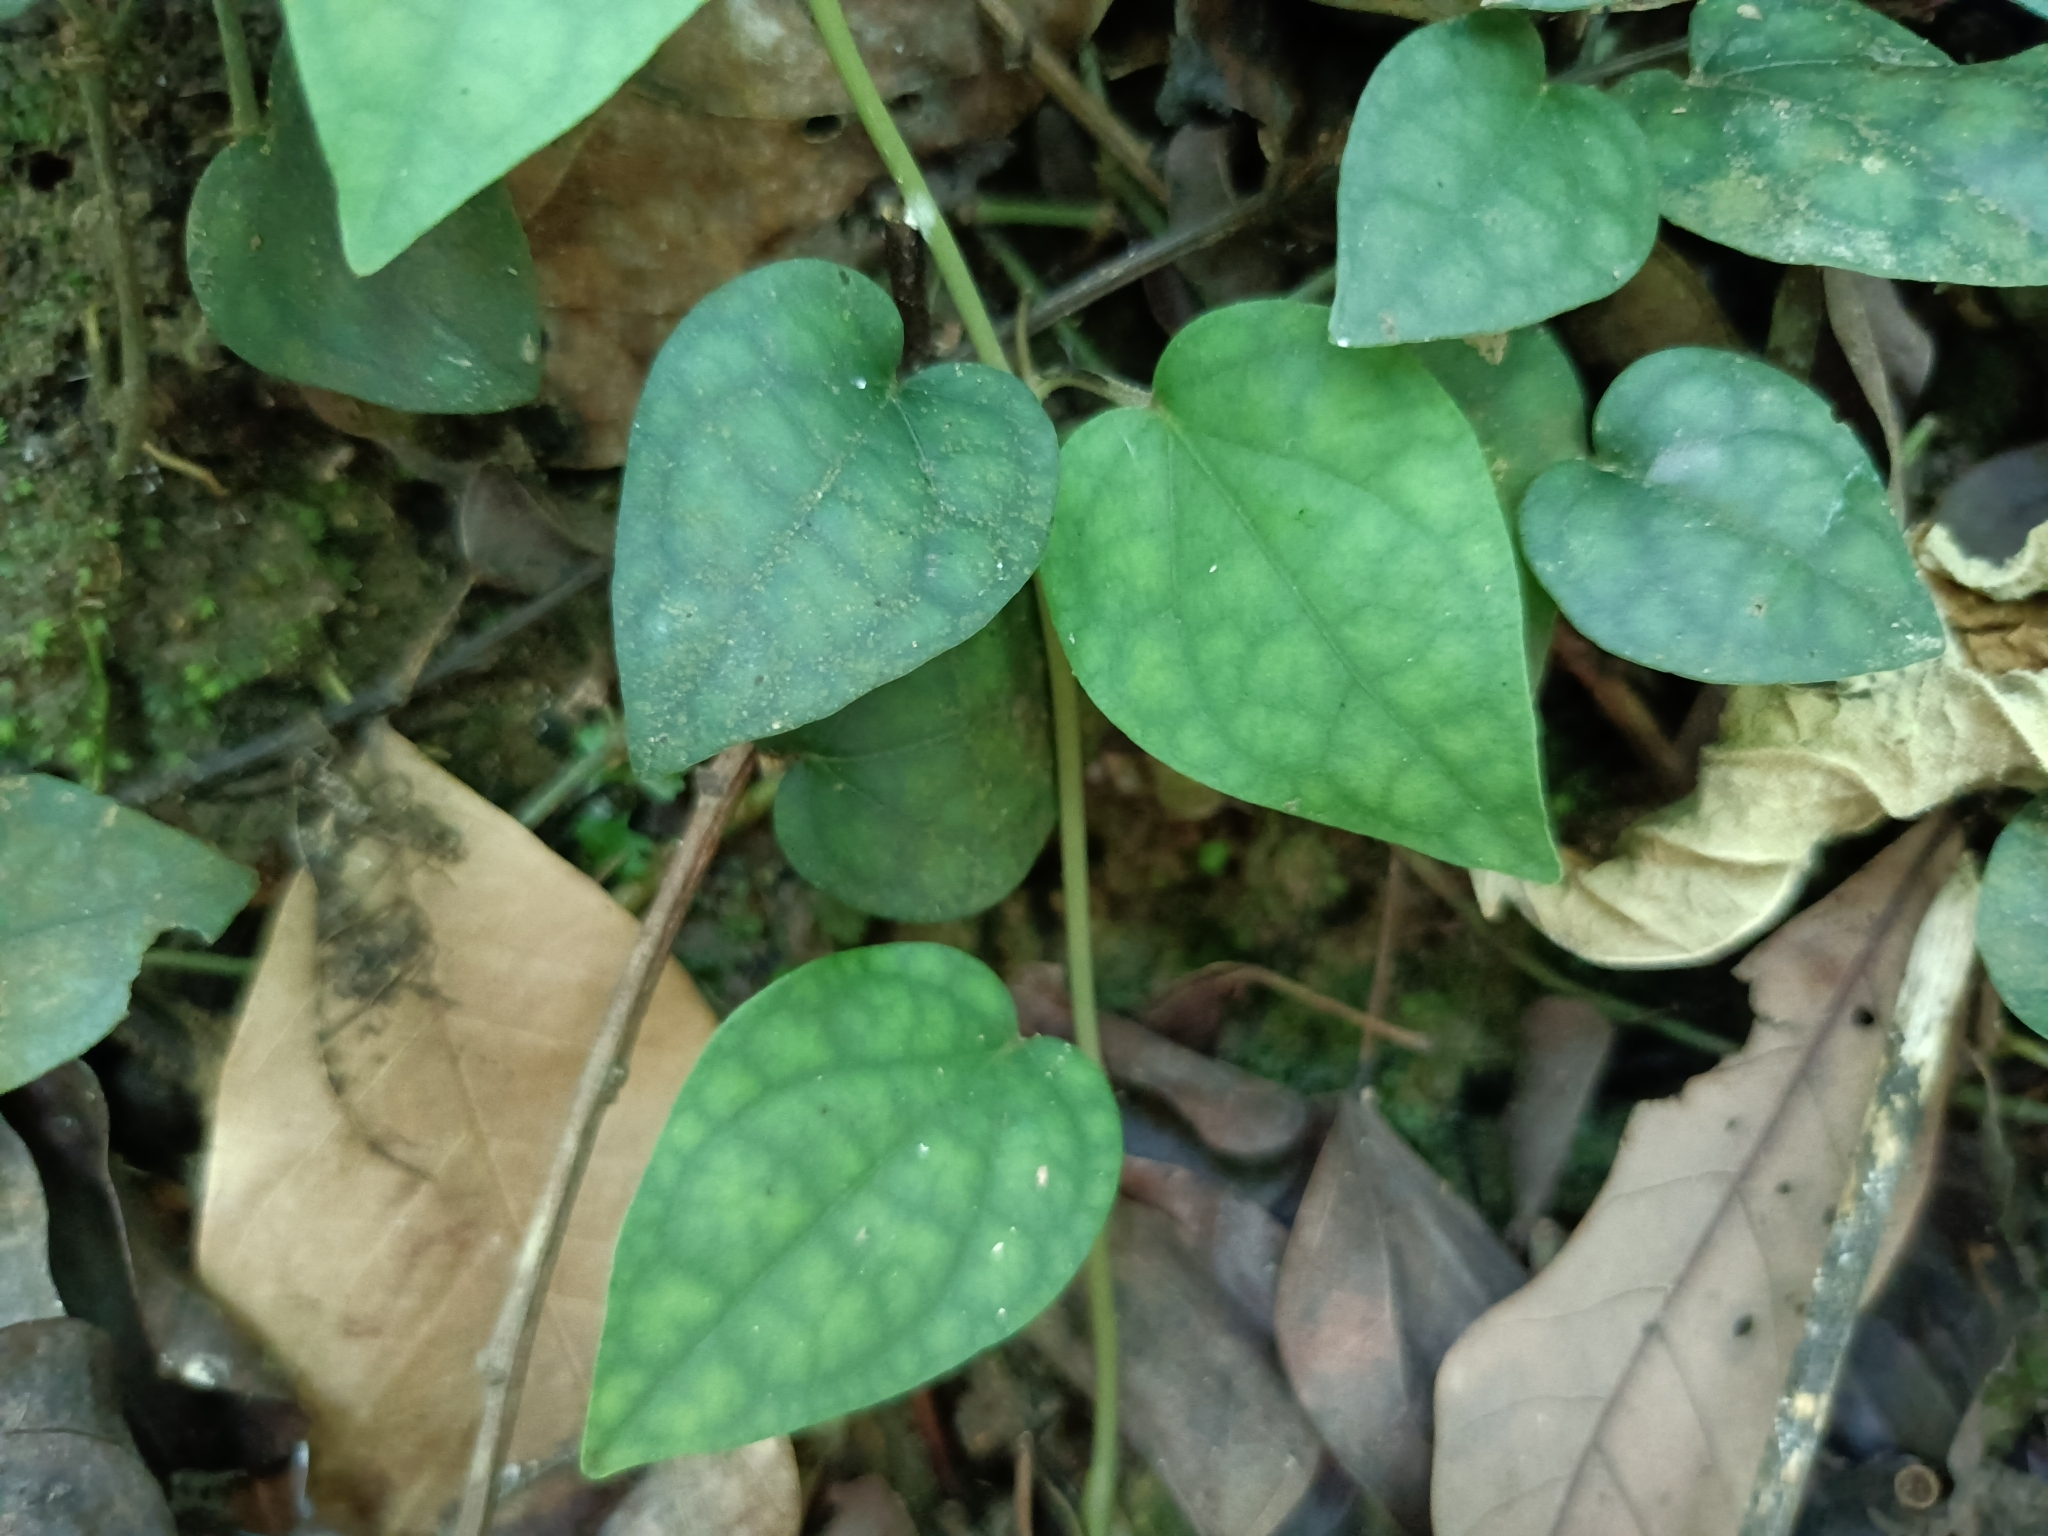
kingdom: Plantae
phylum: Tracheophyta
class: Magnoliopsida
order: Piperales
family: Piperaceae
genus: Piper
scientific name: Piper kadsura
